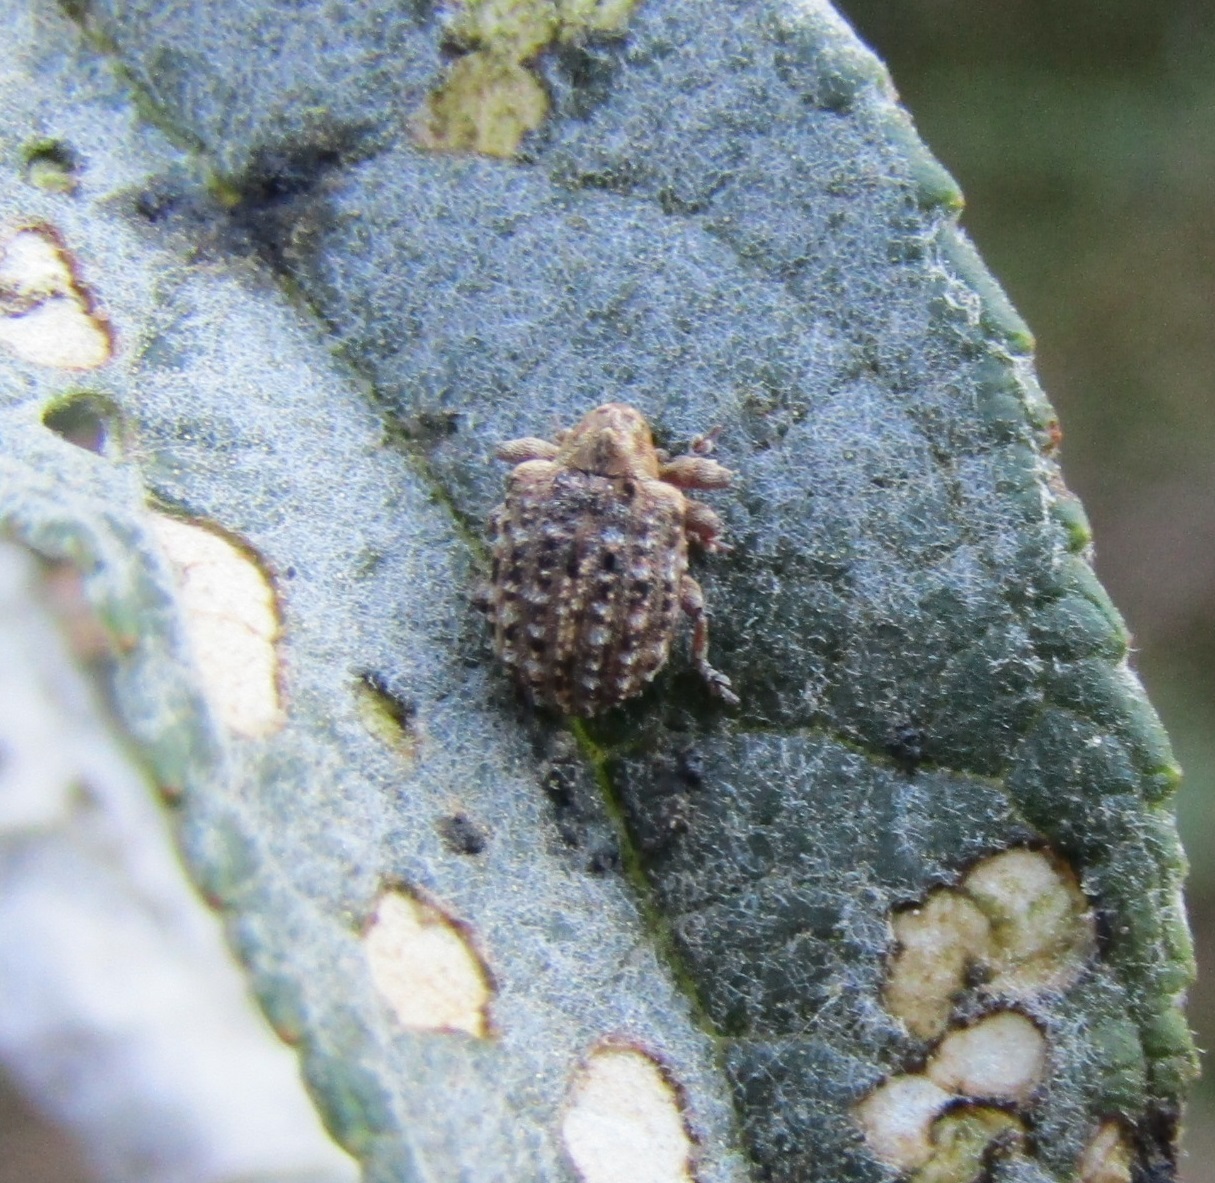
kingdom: Animalia
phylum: Arthropoda
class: Insecta
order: Coleoptera
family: Curculionidae
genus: Cleopus
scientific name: Cleopus japonicus
